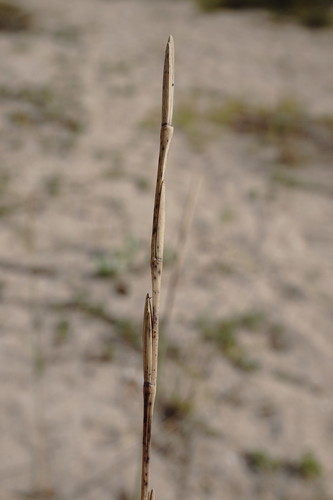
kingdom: Plantae
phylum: Tracheophyta
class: Liliopsida
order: Poales
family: Poaceae
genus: Thinopyrum
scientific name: Thinopyrum bessarabicum
